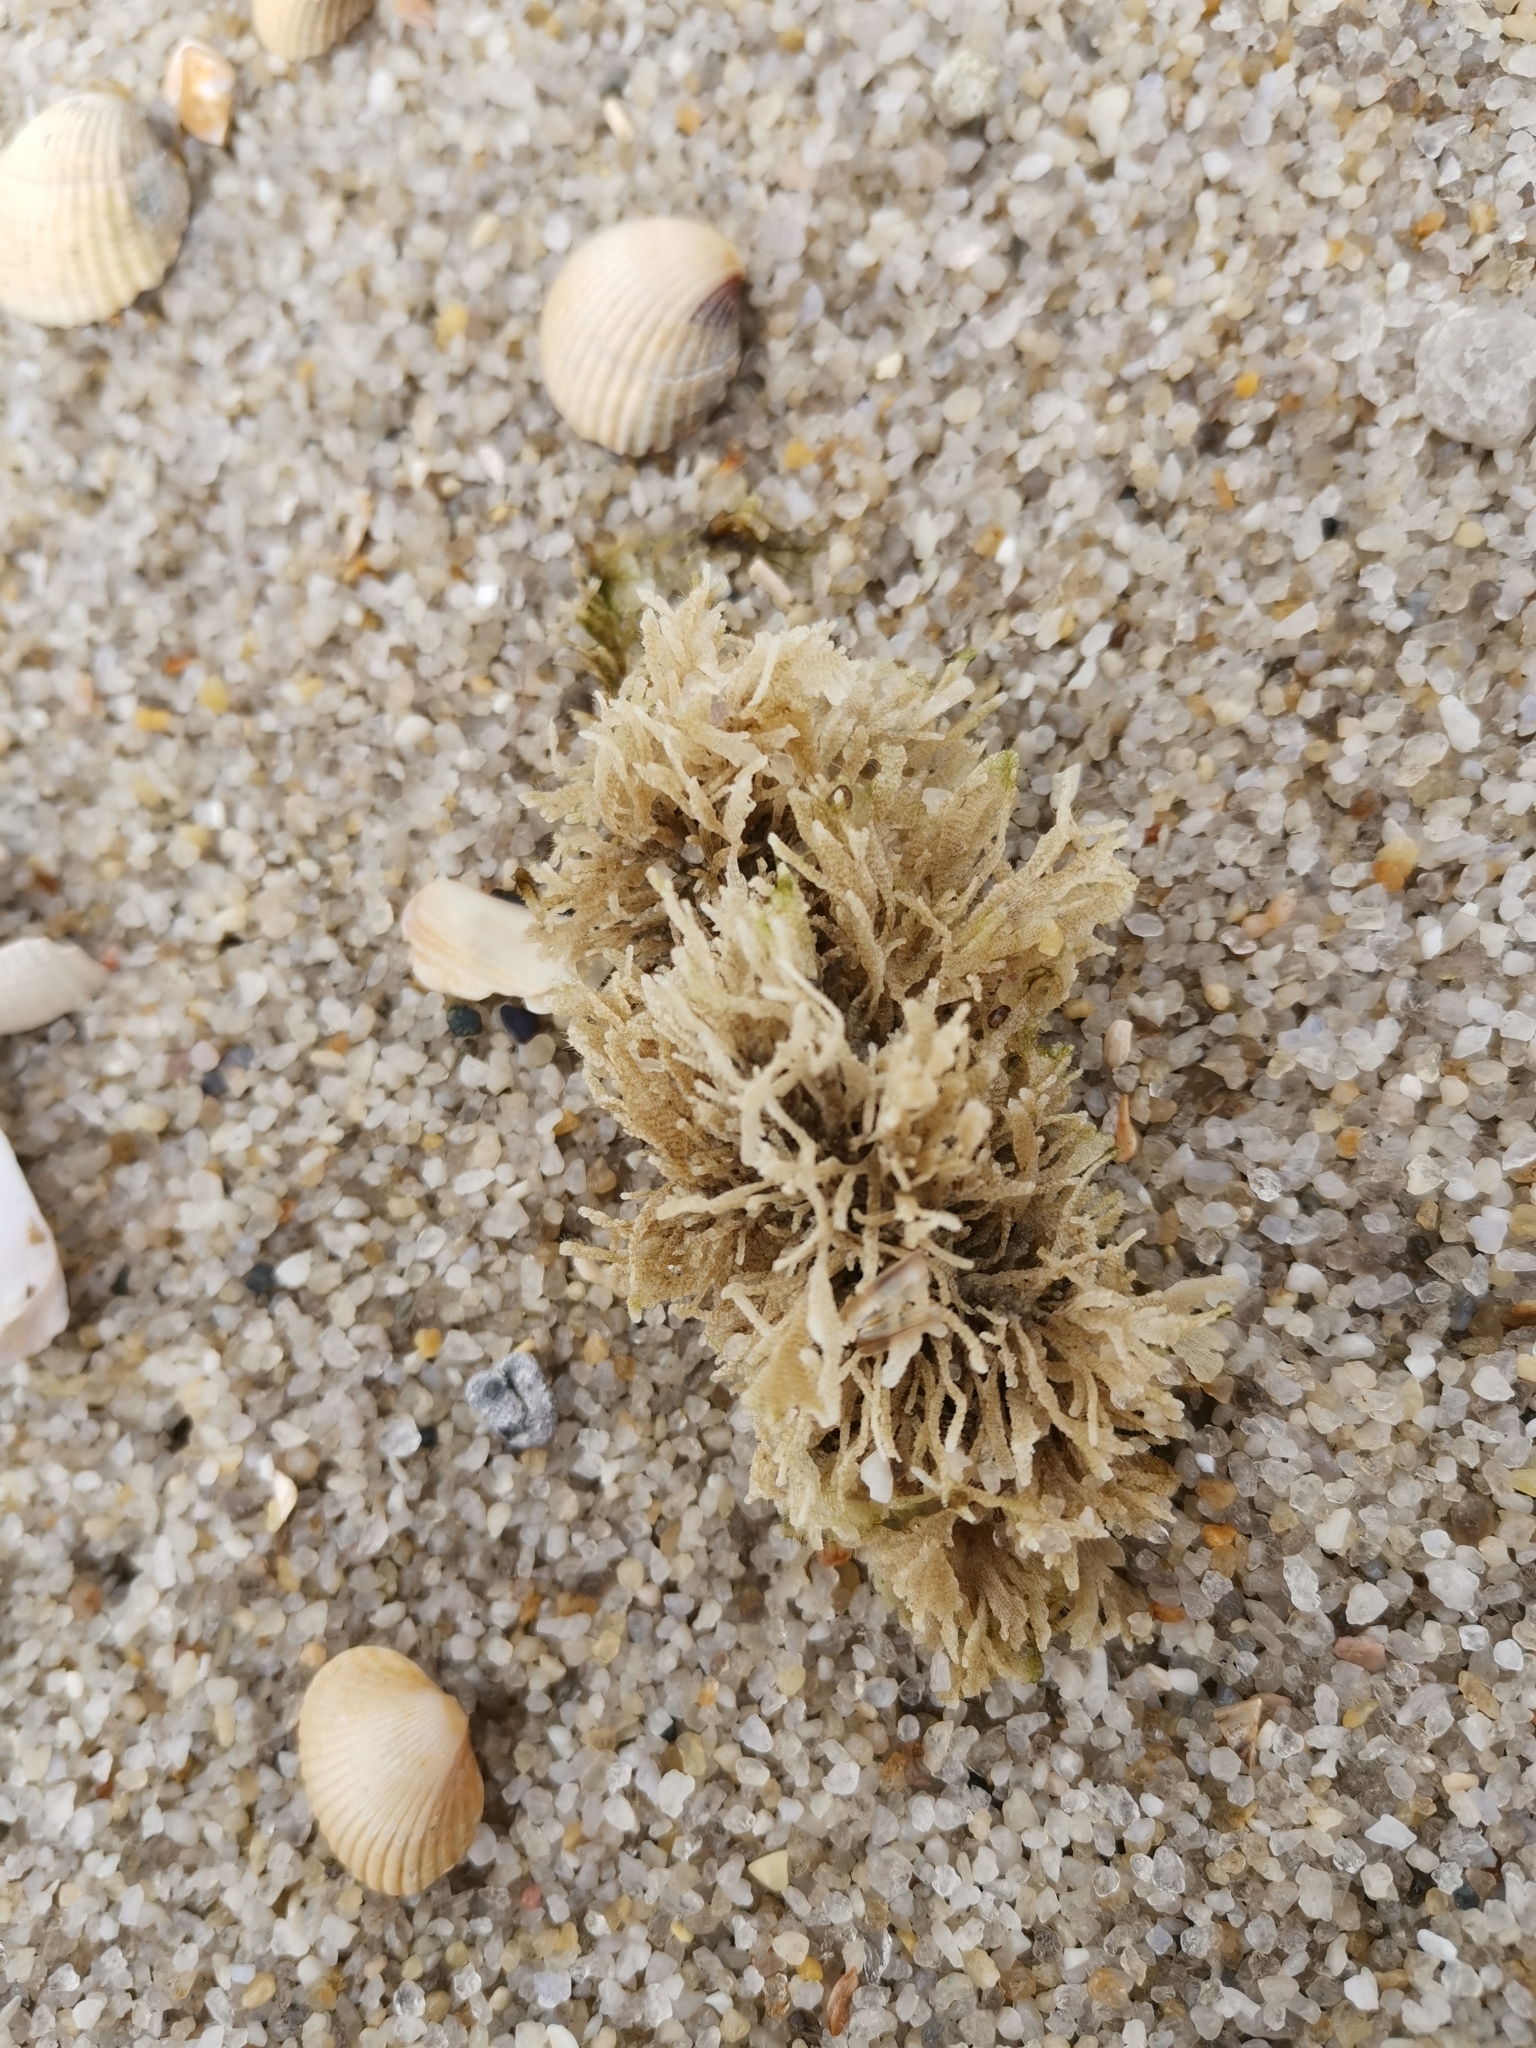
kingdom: Animalia
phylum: Bryozoa
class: Gymnolaemata
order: Cheilostomatida
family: Electridae
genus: Electra
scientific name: Electra pilosa
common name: Hairy sea-mat
